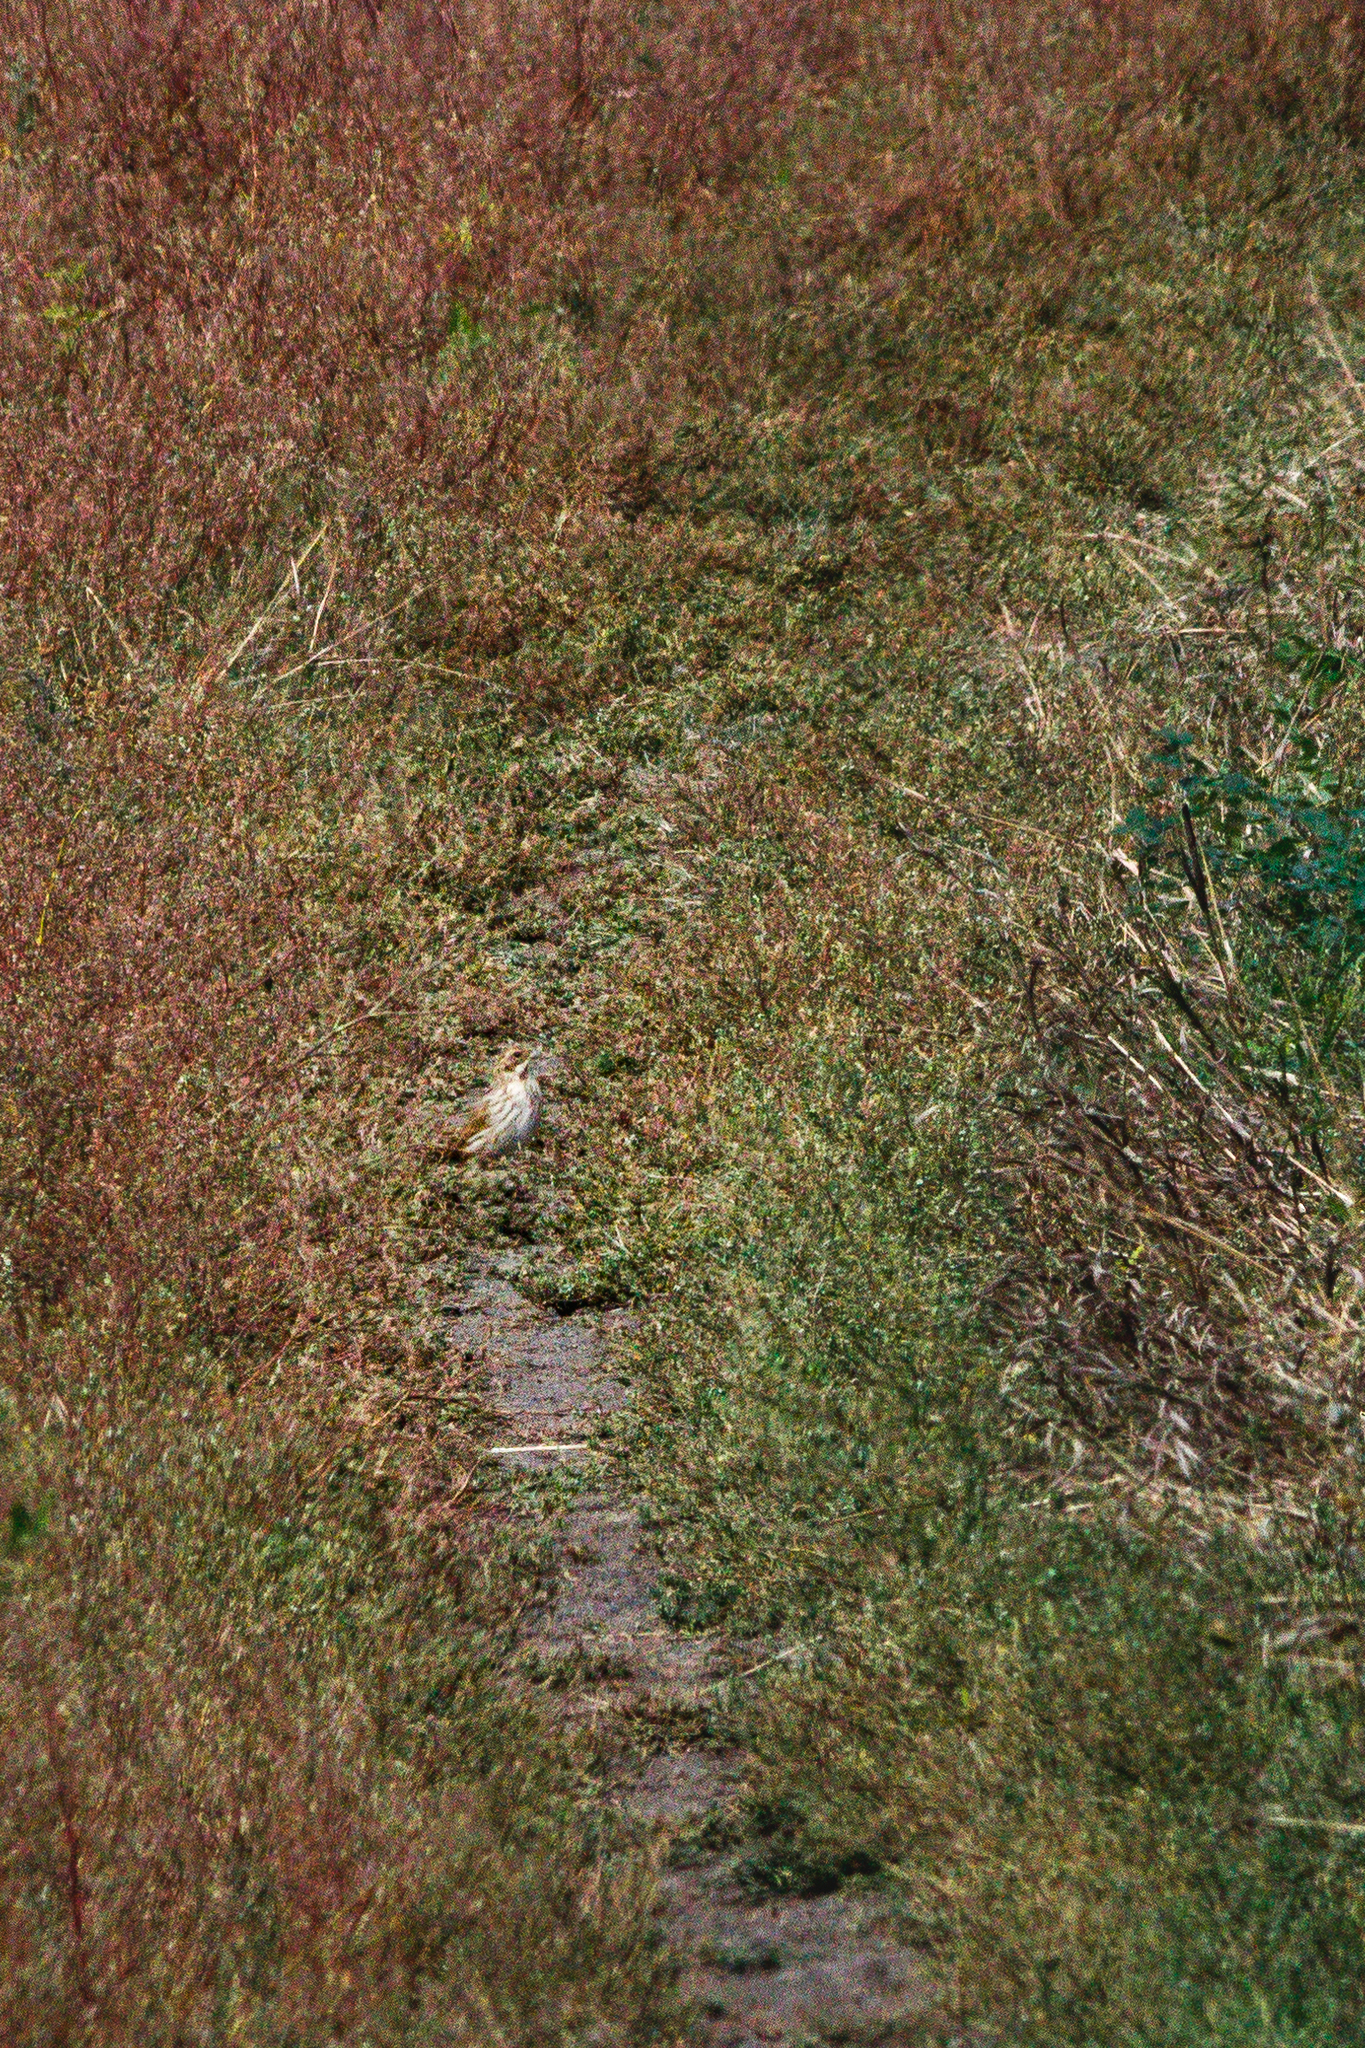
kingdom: Animalia
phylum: Chordata
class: Aves
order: Passeriformes
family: Emberizidae
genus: Emberiza
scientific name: Emberiza schoeniclus
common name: Reed bunting
